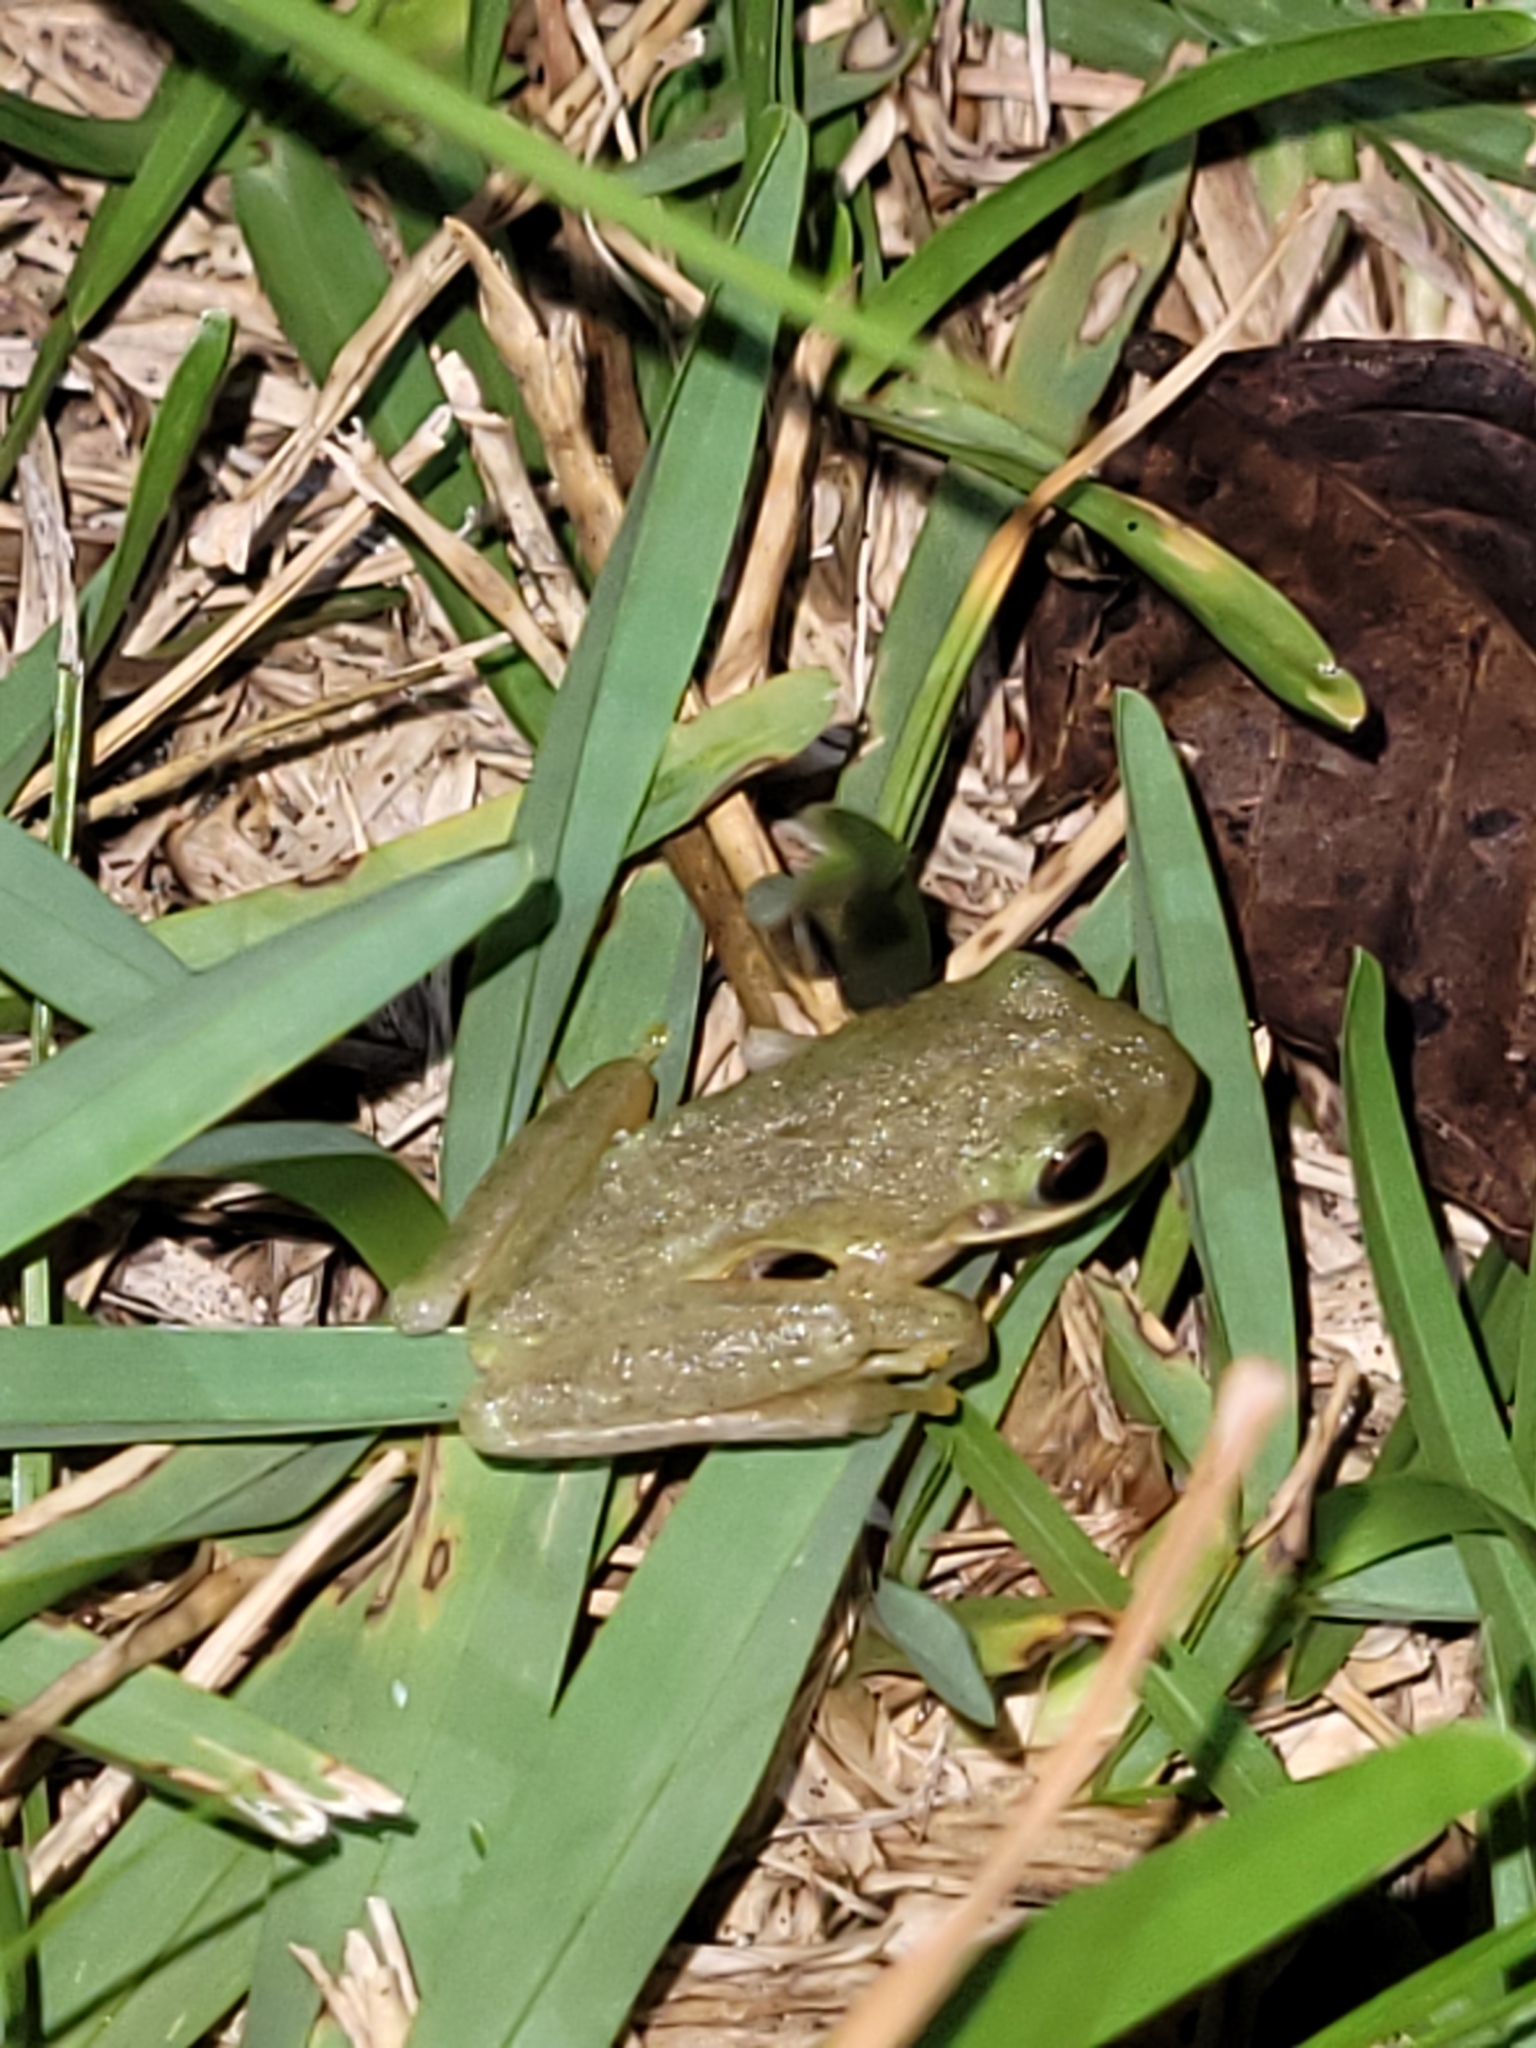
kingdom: Animalia
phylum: Chordata
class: Amphibia
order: Anura
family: Hylidae
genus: Dryophytes
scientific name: Dryophytes squirellus
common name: Squirrel treefrog
